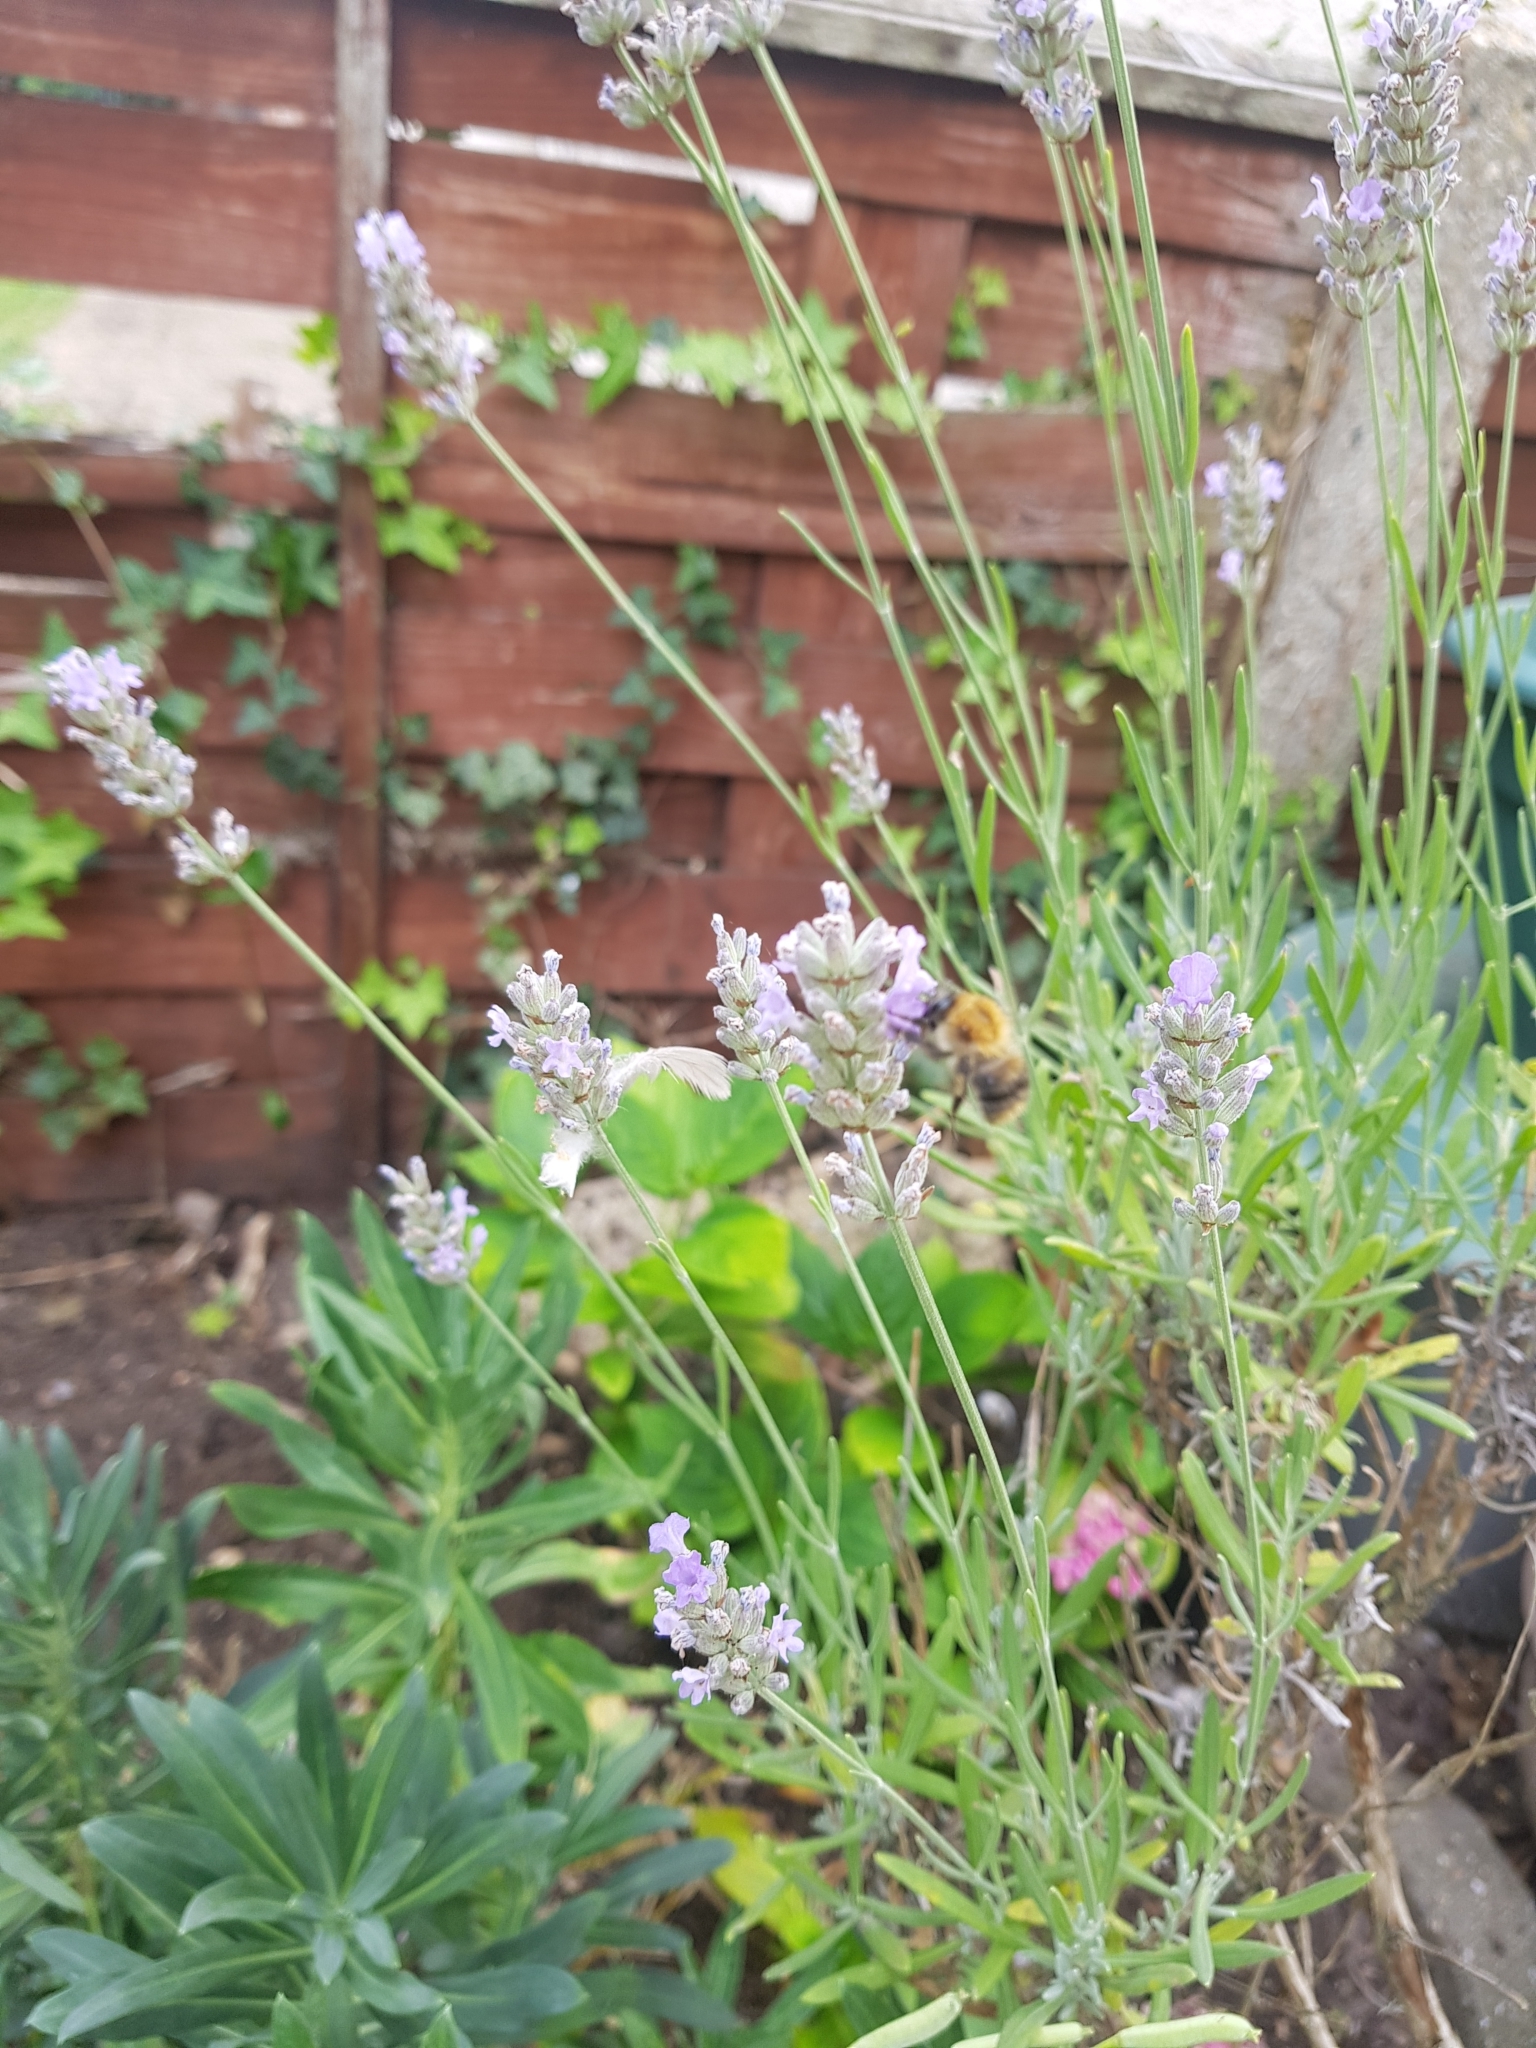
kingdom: Animalia
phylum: Arthropoda
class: Insecta
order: Hymenoptera
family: Apidae
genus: Bombus
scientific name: Bombus pascuorum
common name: Common carder bee
